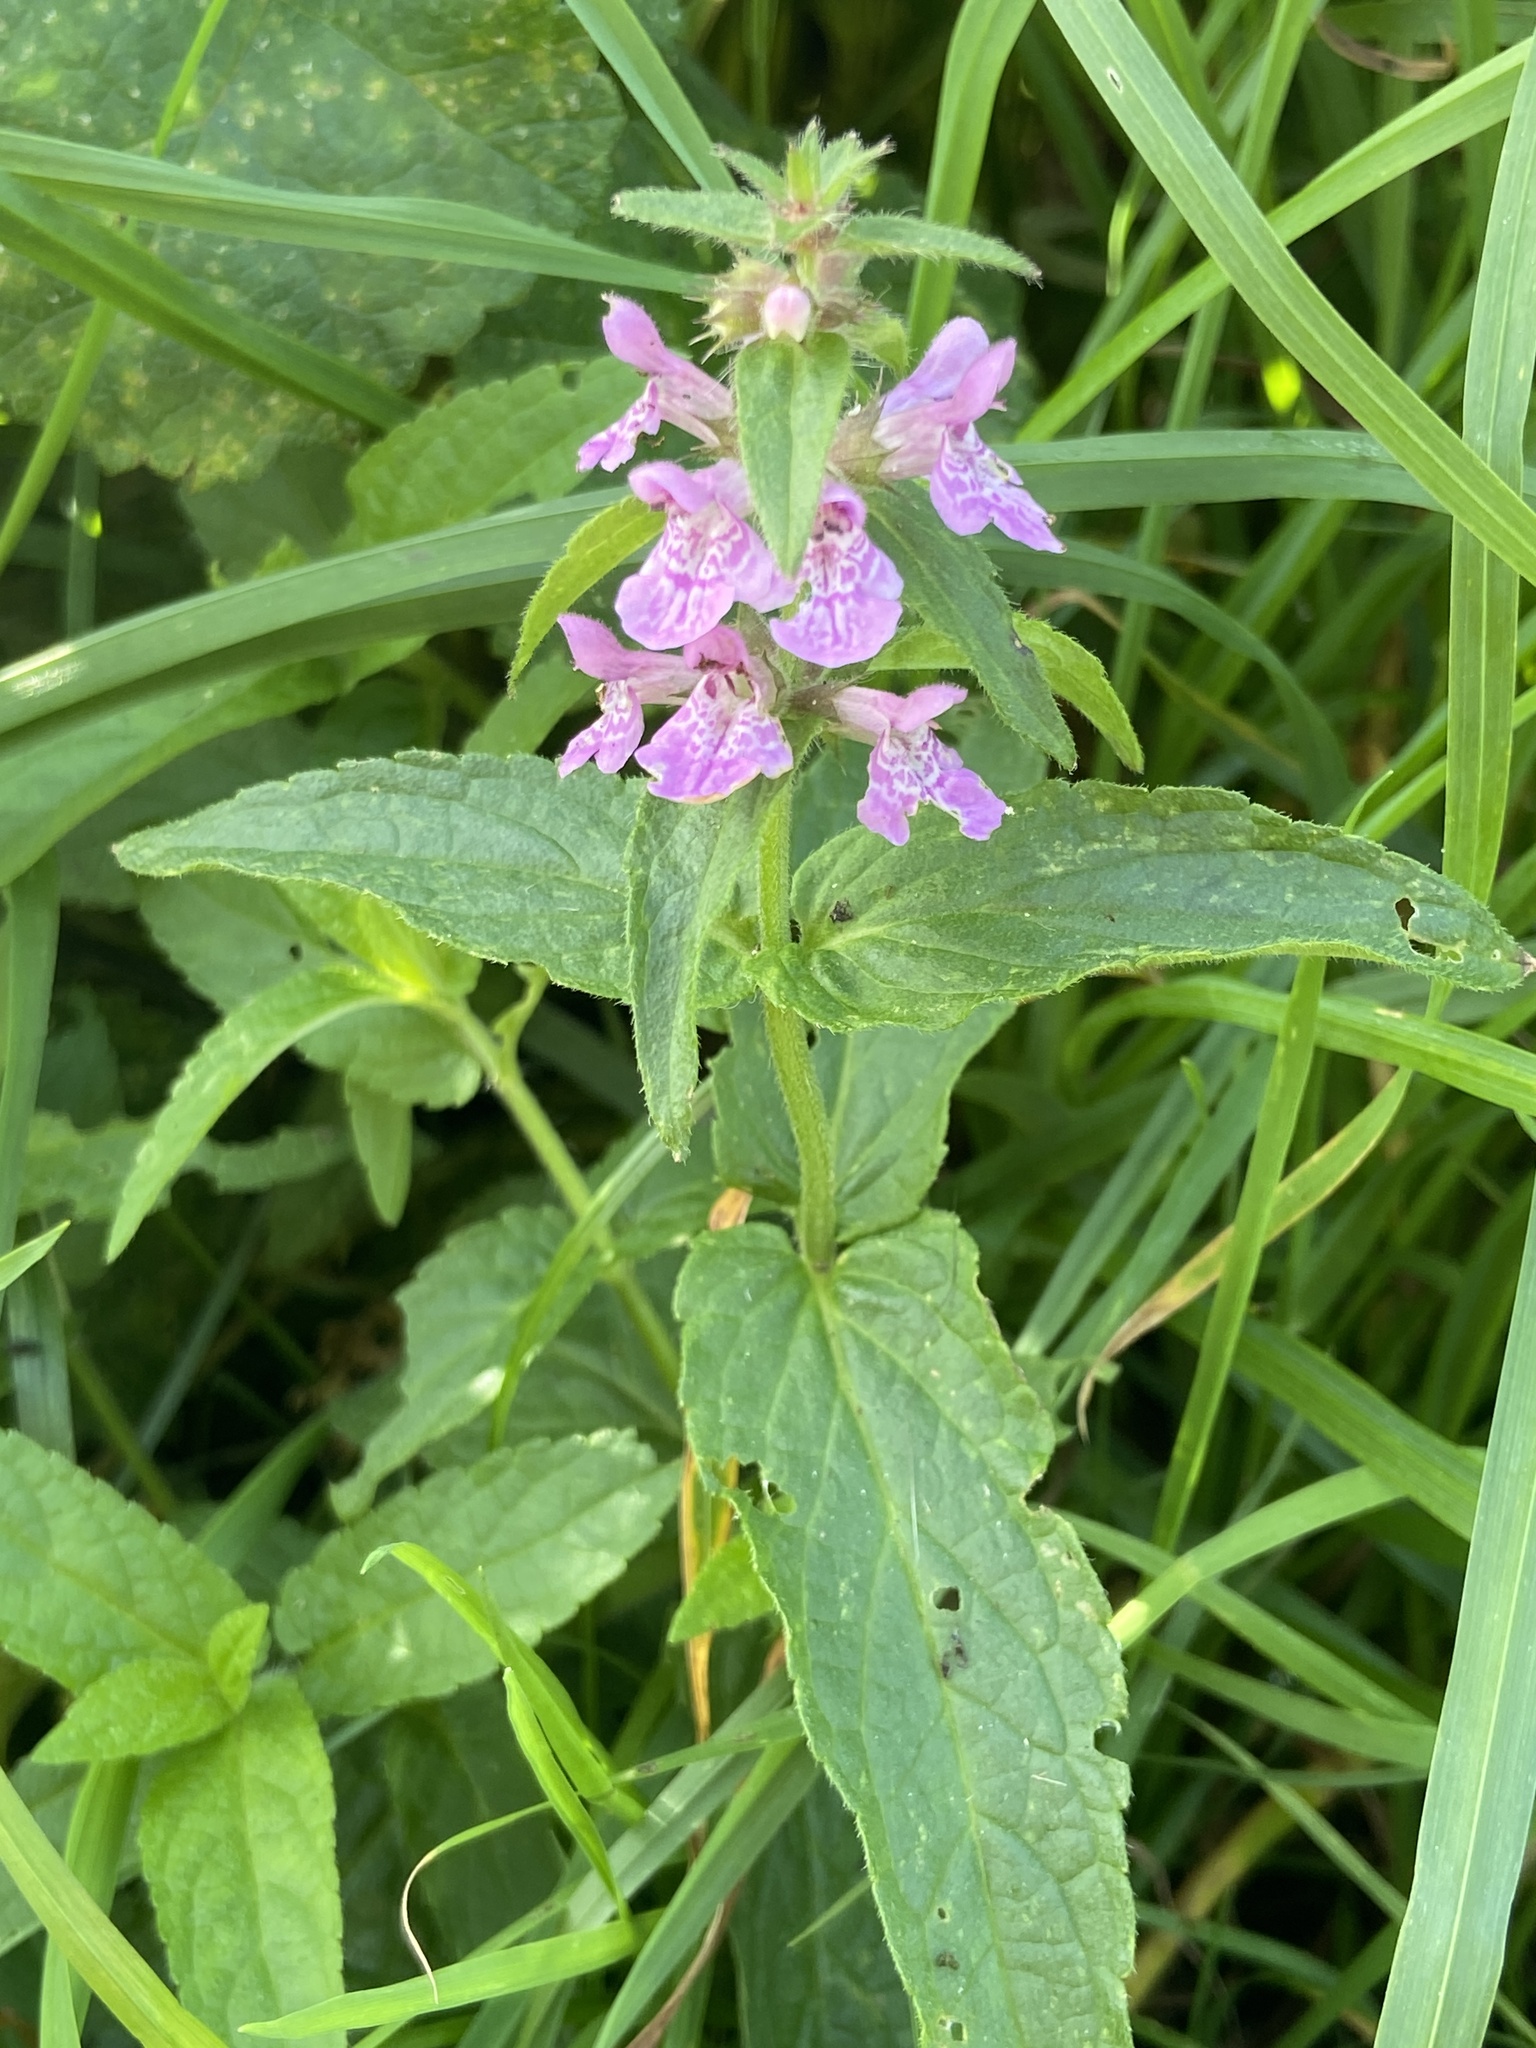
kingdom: Plantae
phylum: Tracheophyta
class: Magnoliopsida
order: Lamiales
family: Lamiaceae
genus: Stachys
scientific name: Stachys palustris
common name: Marsh woundwort
